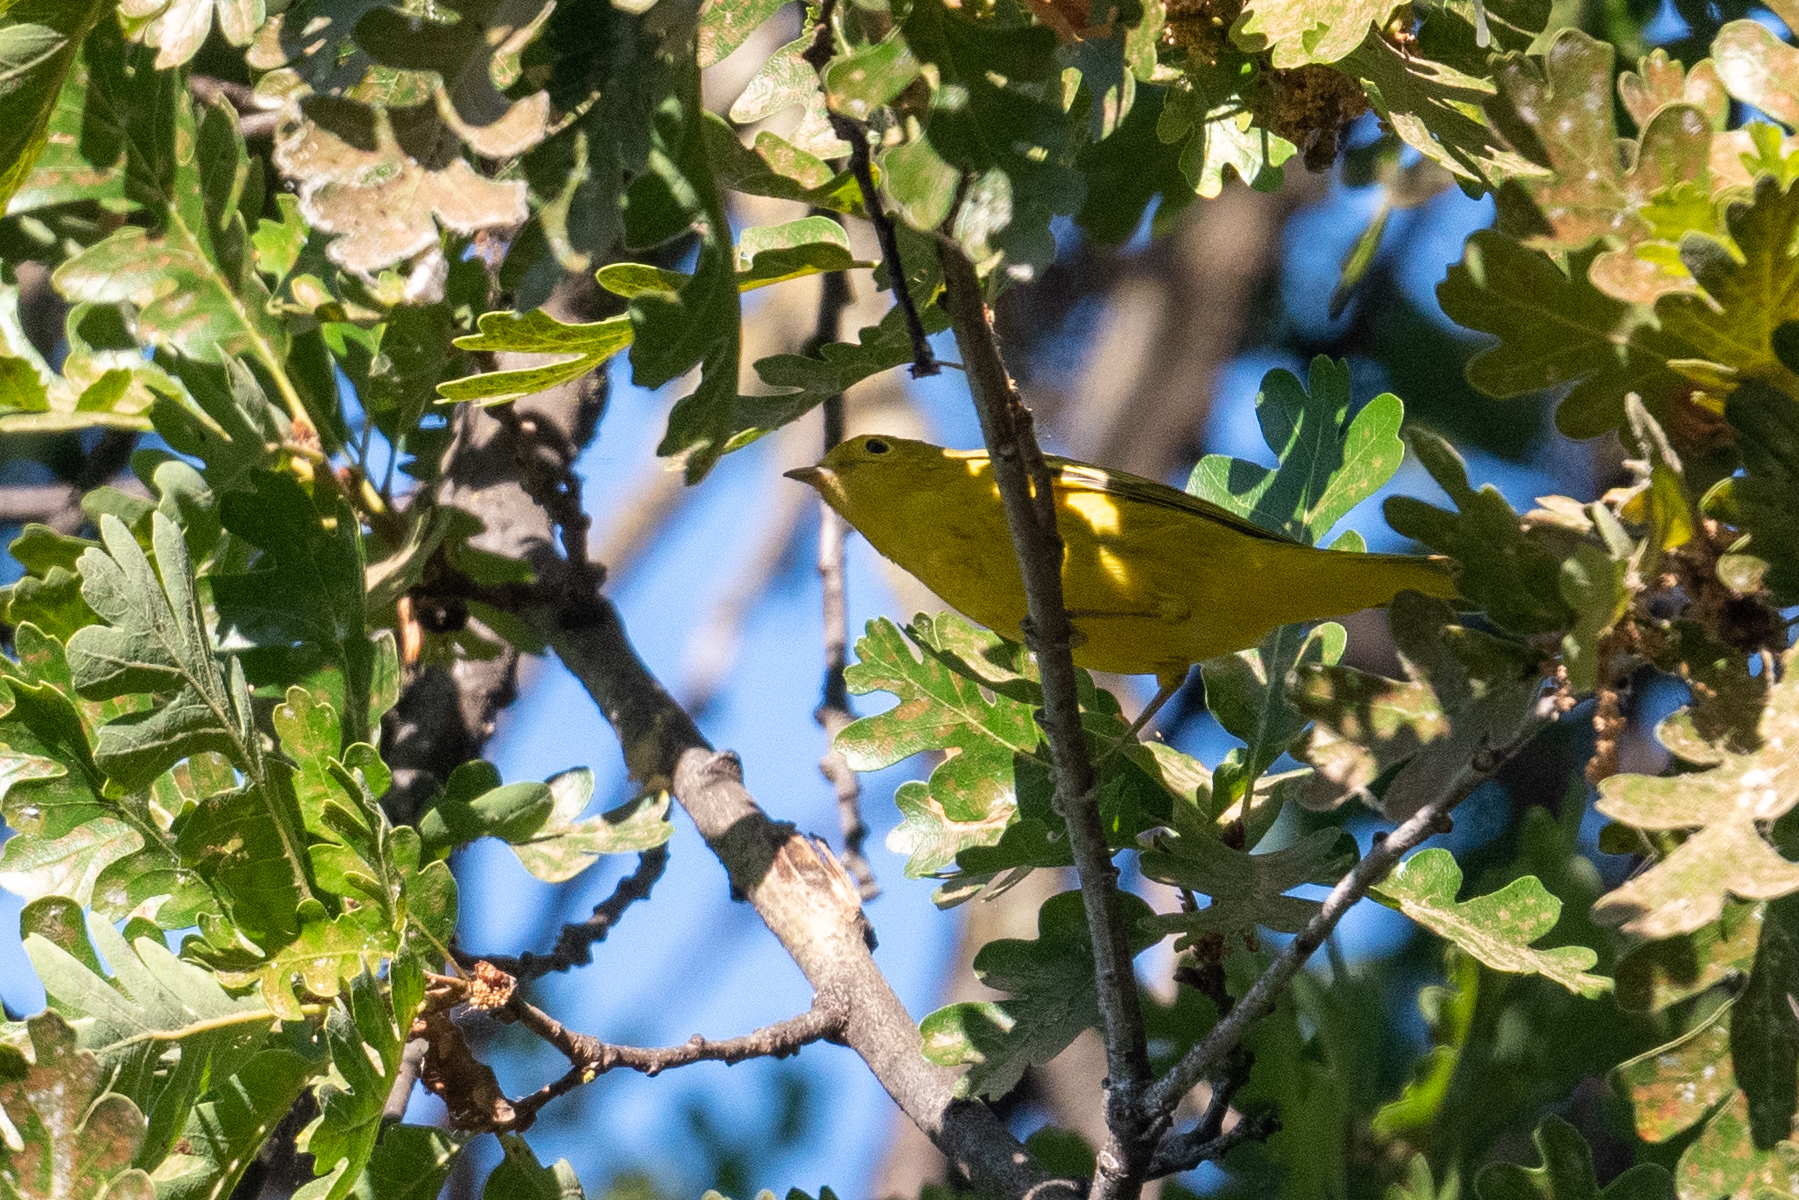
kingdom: Animalia
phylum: Chordata
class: Aves
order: Passeriformes
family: Parulidae
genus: Setophaga
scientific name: Setophaga petechia
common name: Yellow warbler
